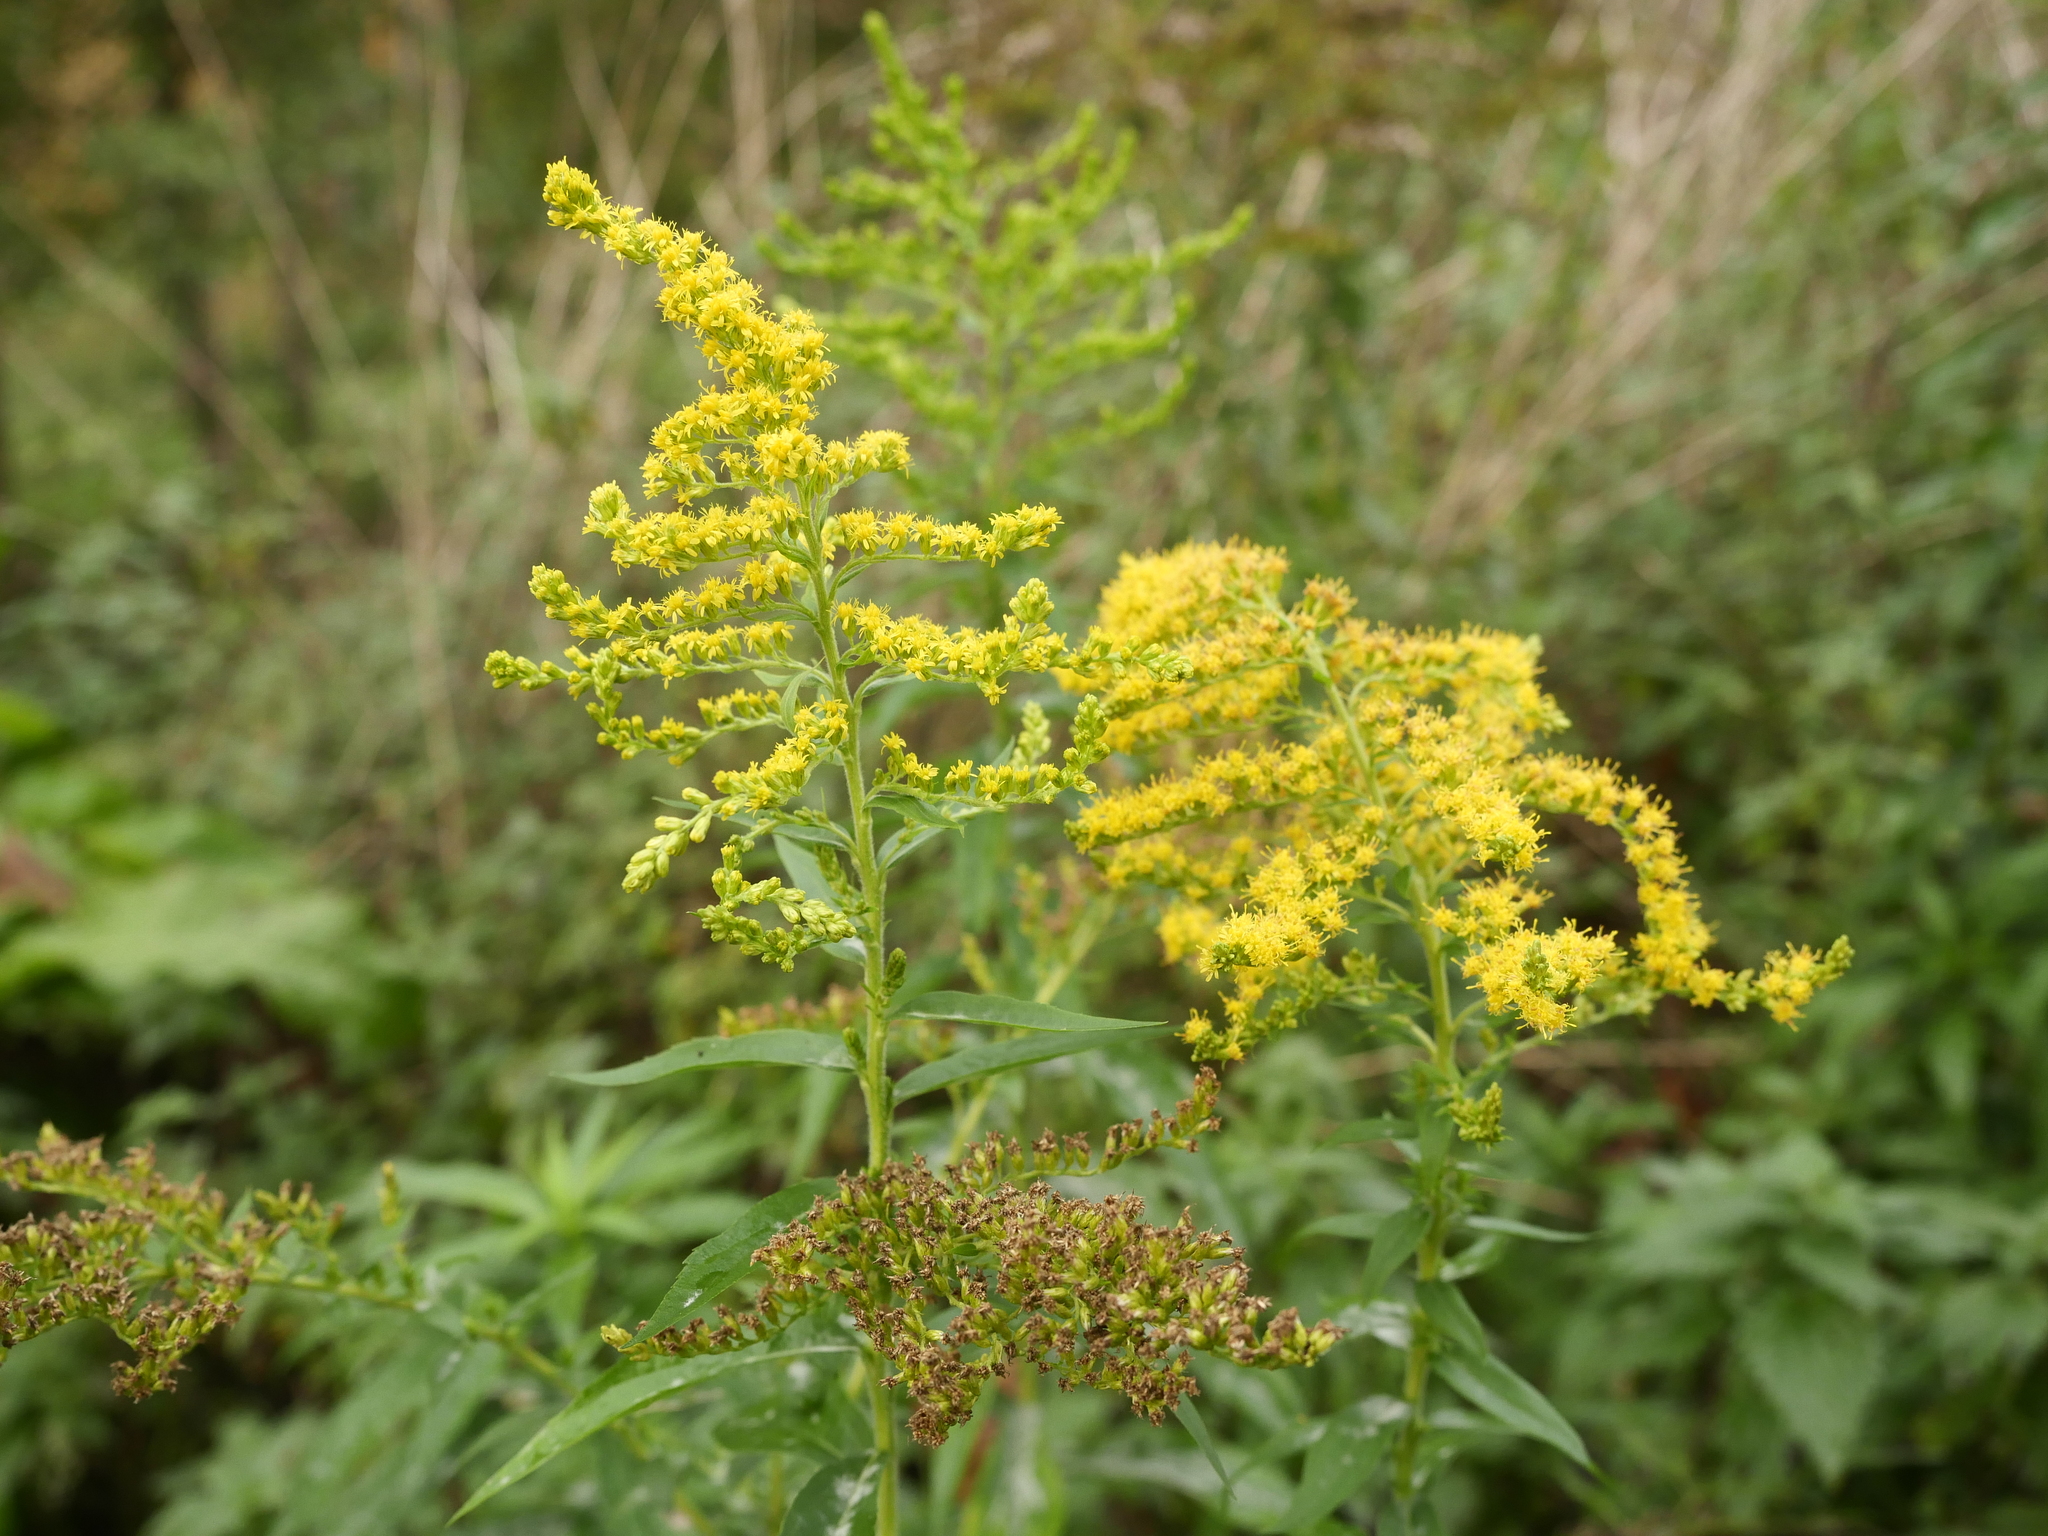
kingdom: Plantae
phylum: Tracheophyta
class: Magnoliopsida
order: Asterales
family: Asteraceae
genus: Solidago
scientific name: Solidago canadensis
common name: Canada goldenrod
